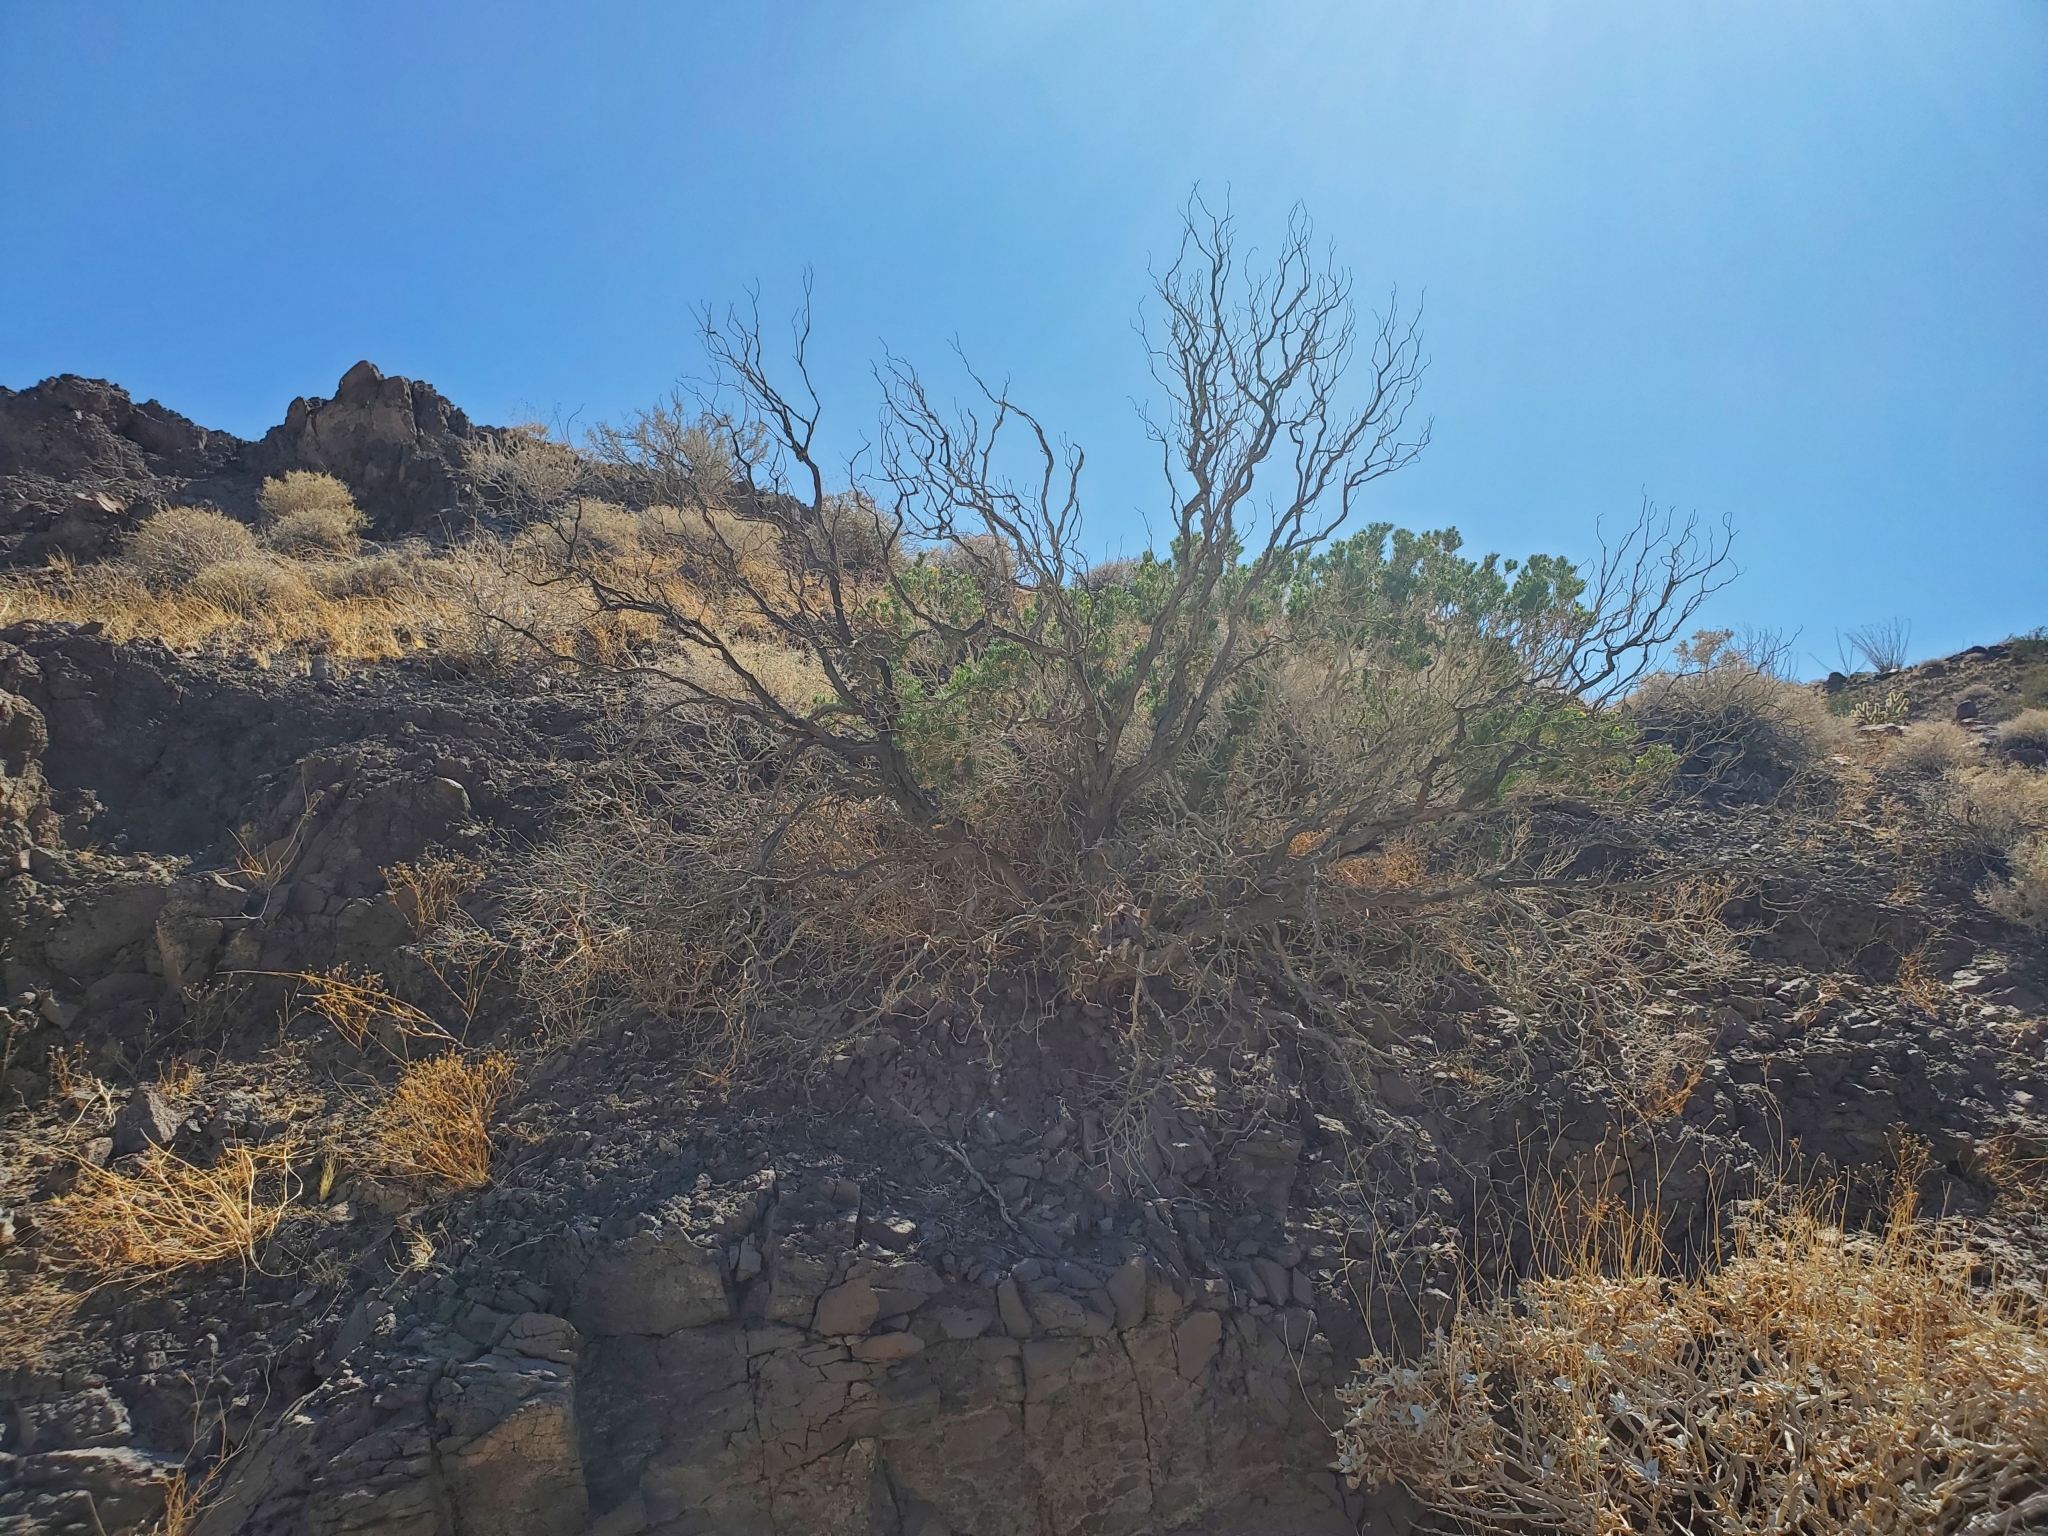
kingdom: Plantae
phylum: Tracheophyta
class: Magnoliopsida
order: Asterales
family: Asteraceae
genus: Peucephyllum
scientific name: Peucephyllum schottii
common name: Pygmy-cedar
